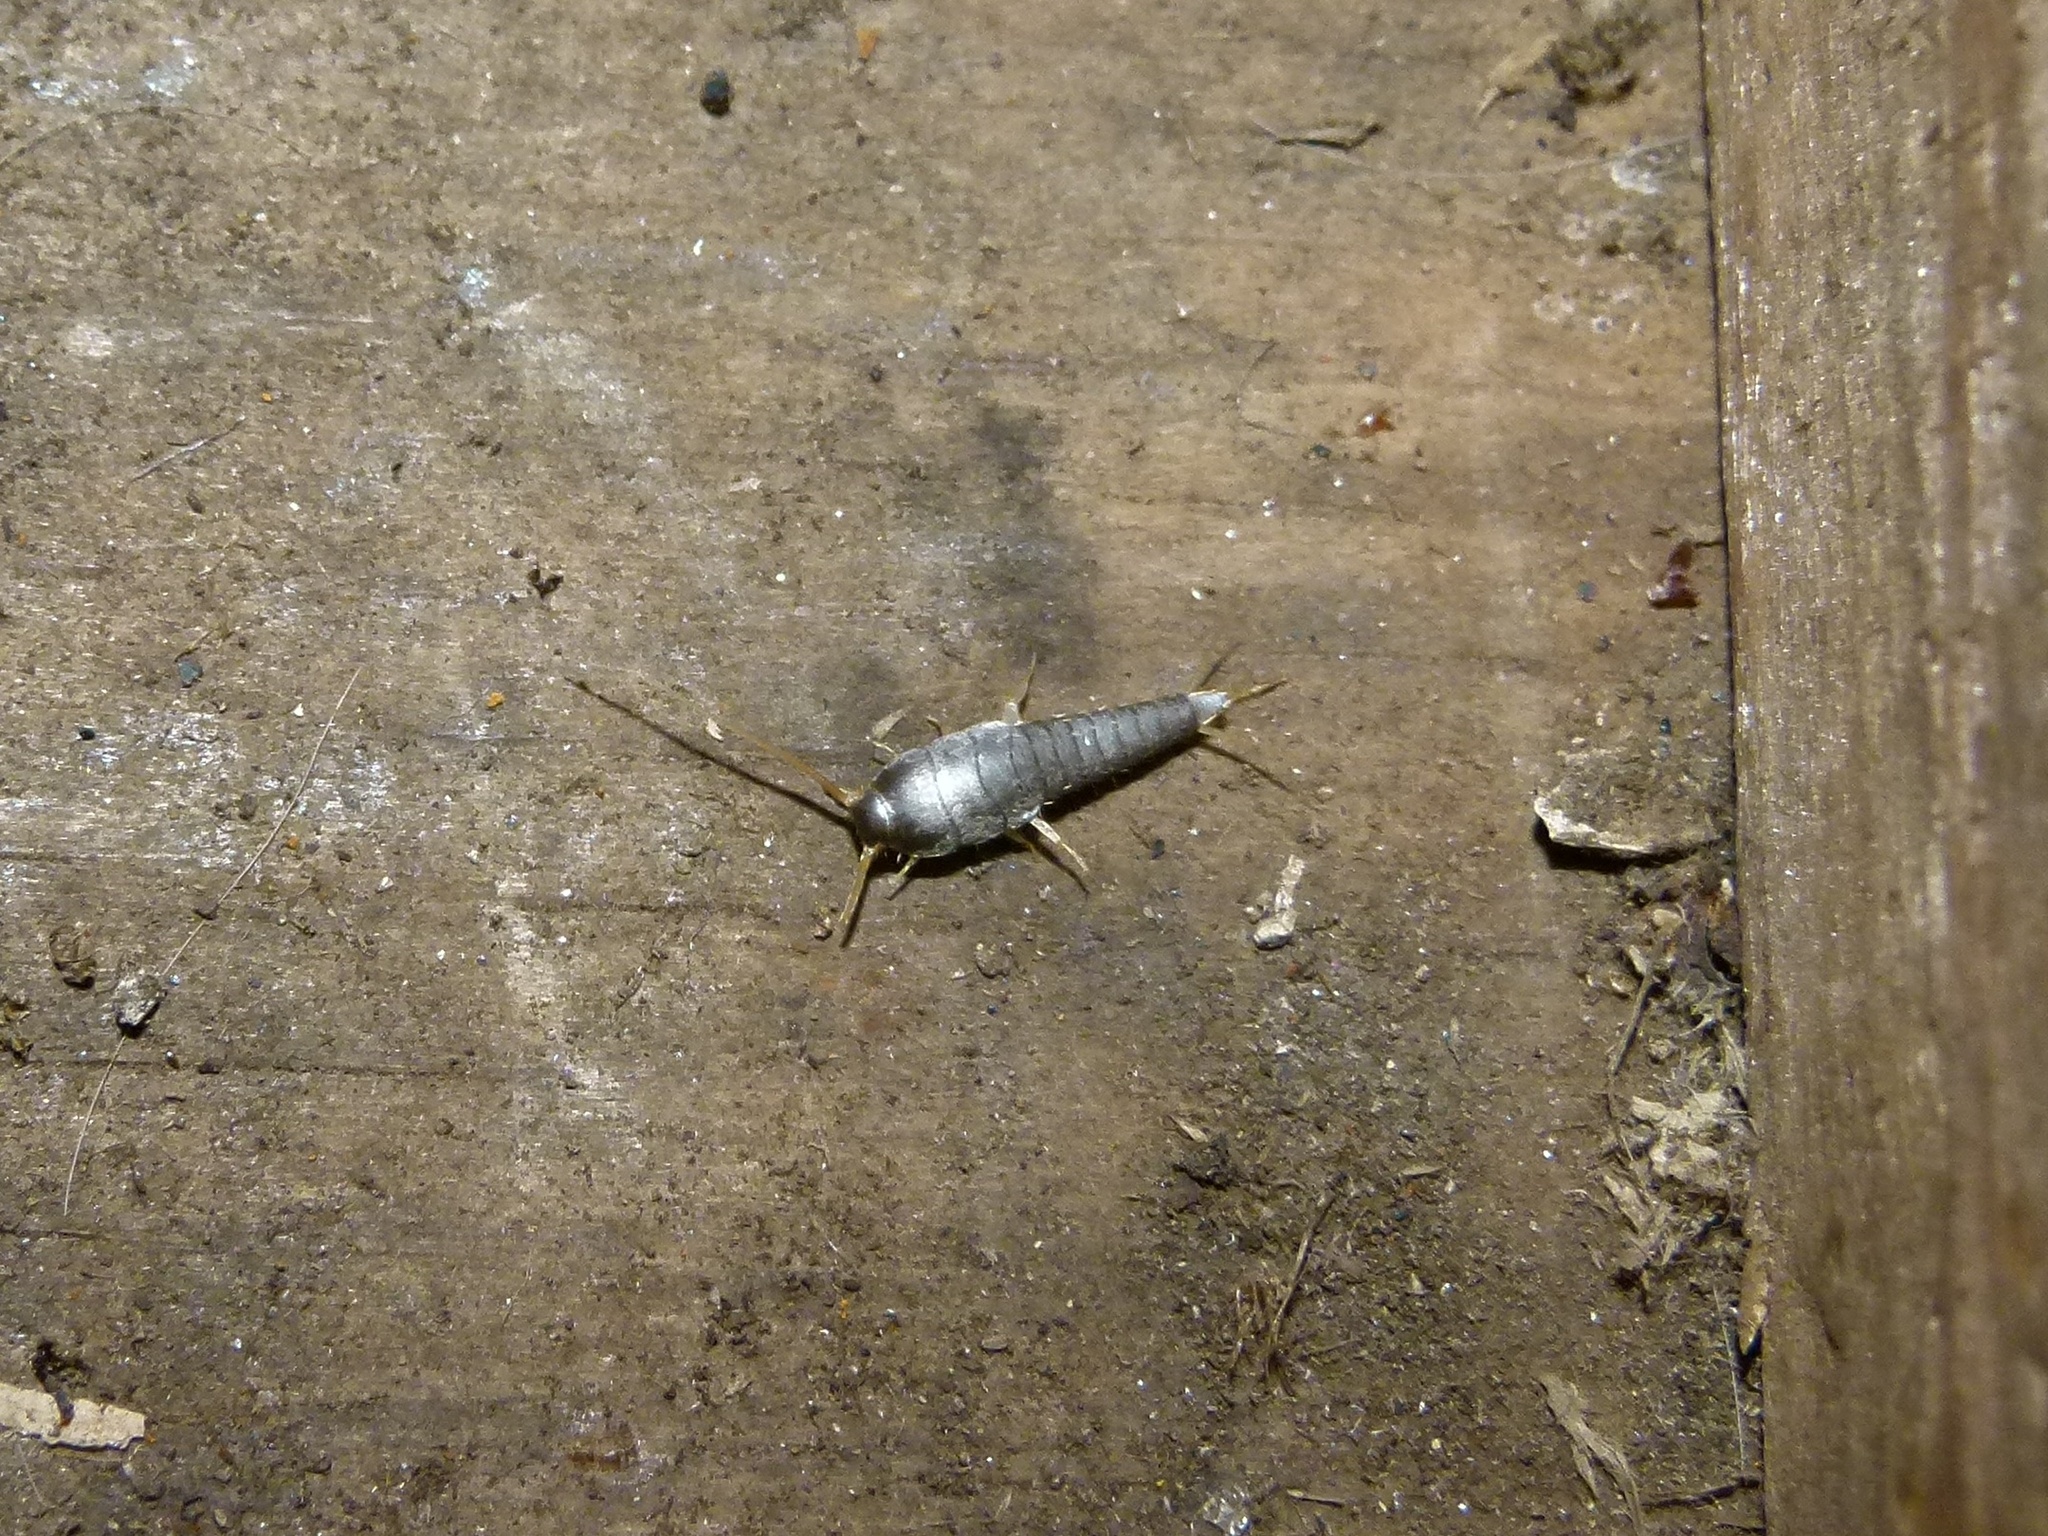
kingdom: Animalia
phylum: Arthropoda
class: Insecta
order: Zygentoma
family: Lepismatidae
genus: Lepisma
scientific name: Lepisma saccharinum
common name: Silverfish
